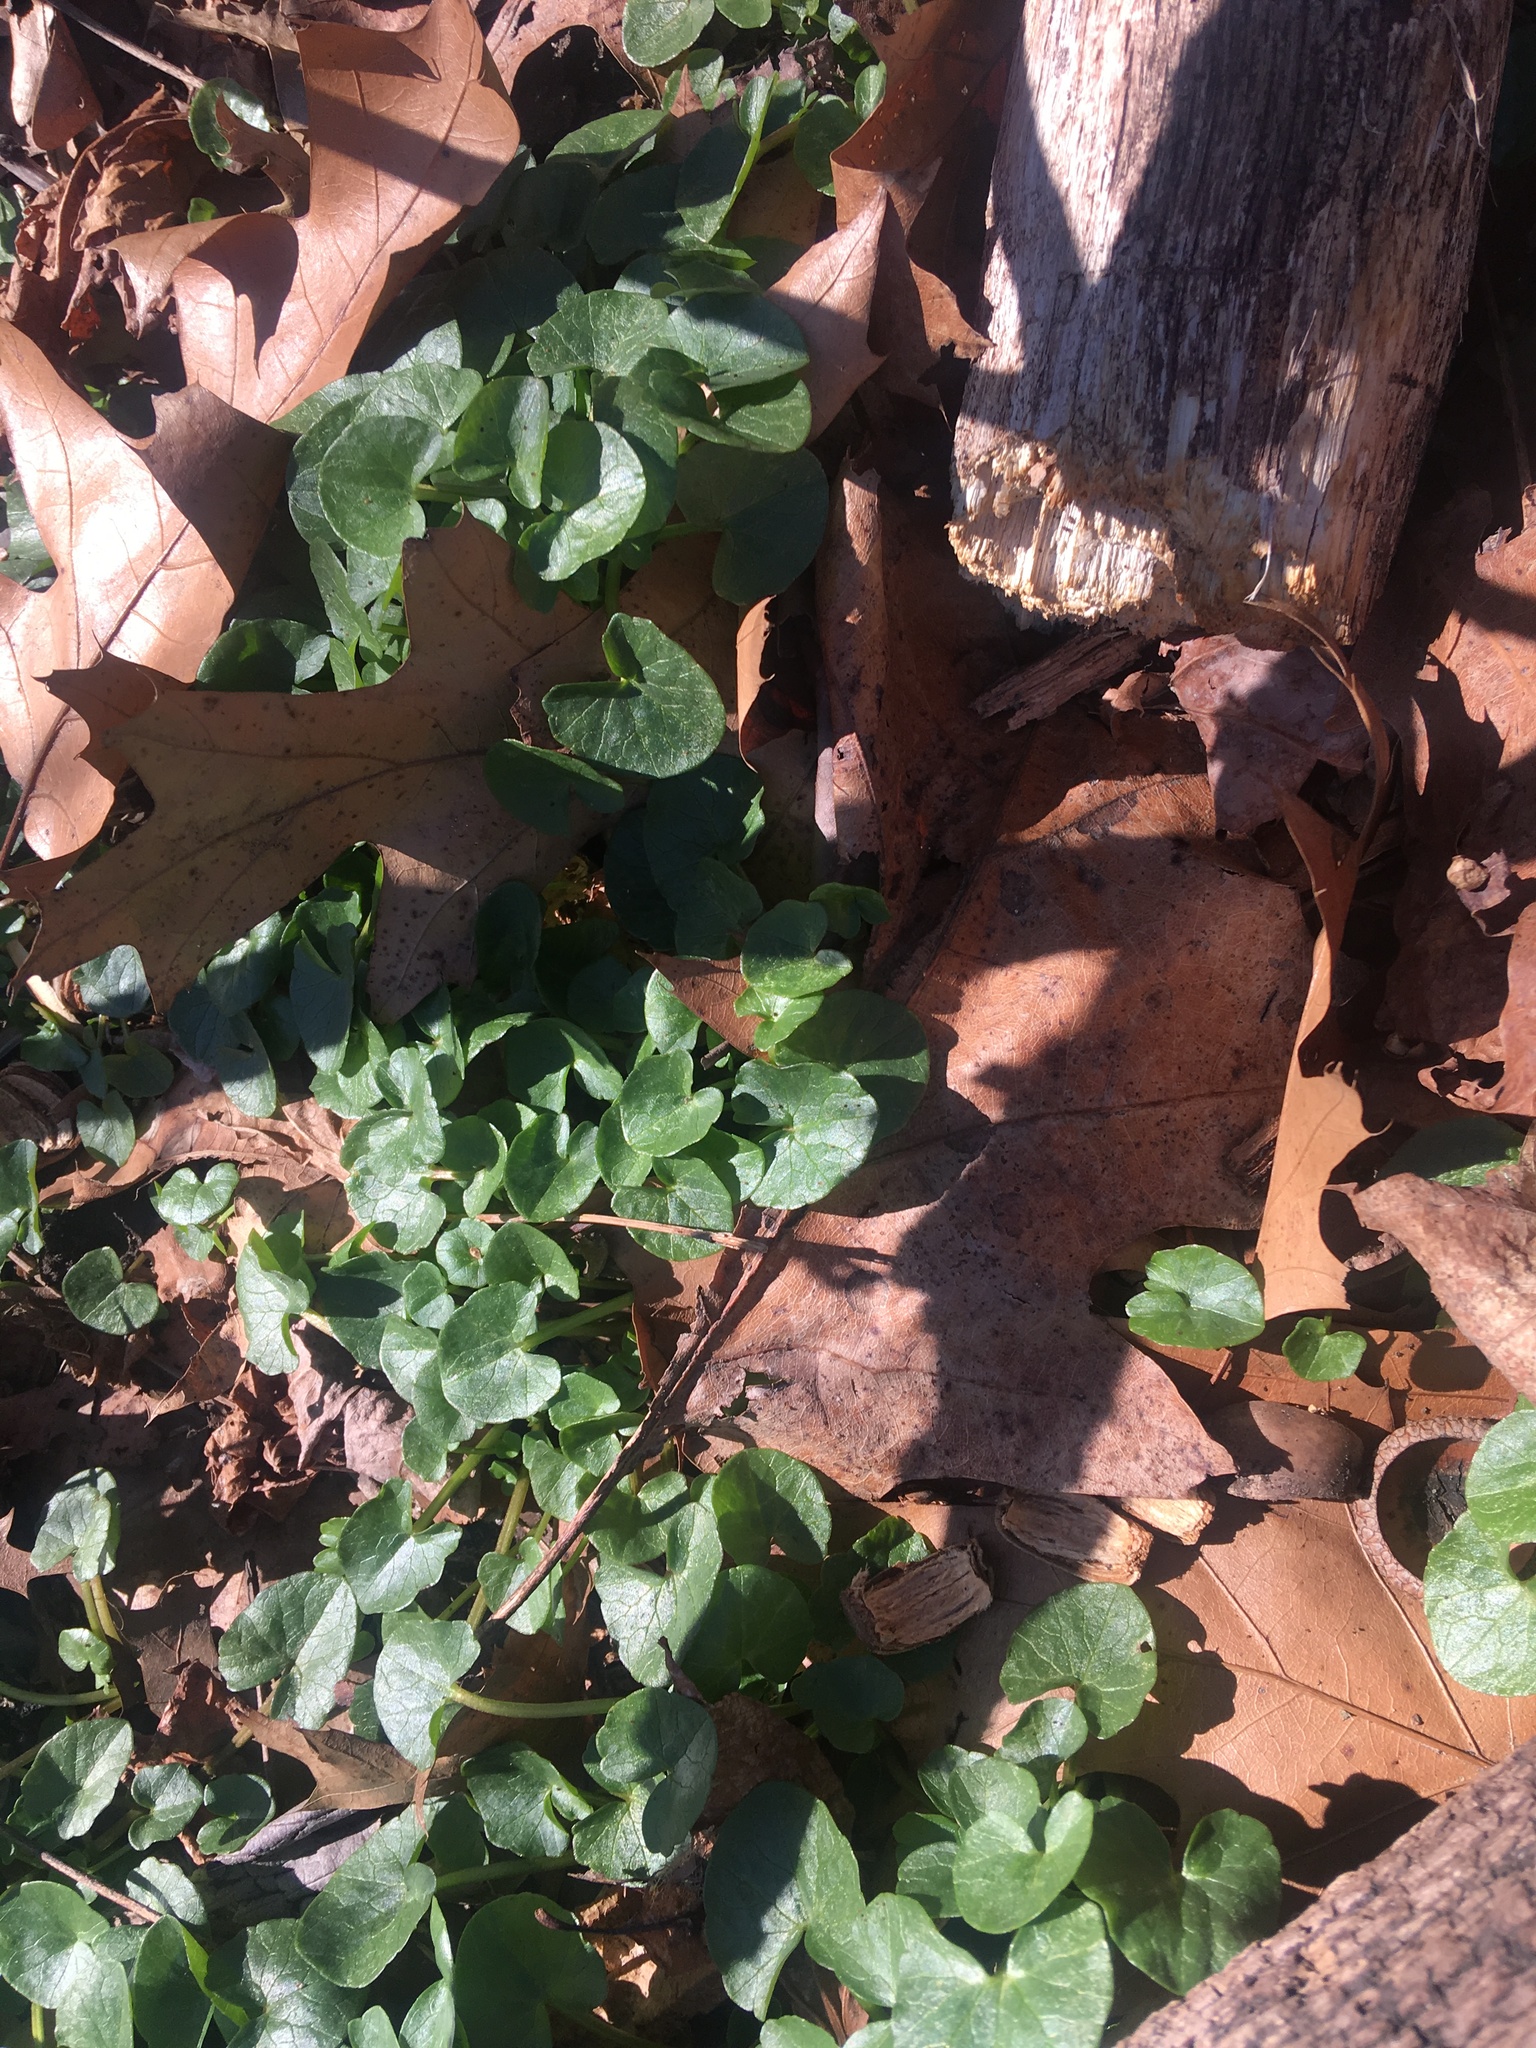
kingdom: Plantae
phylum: Tracheophyta
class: Magnoliopsida
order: Ranunculales
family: Ranunculaceae
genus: Ficaria
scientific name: Ficaria verna
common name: Lesser celandine
